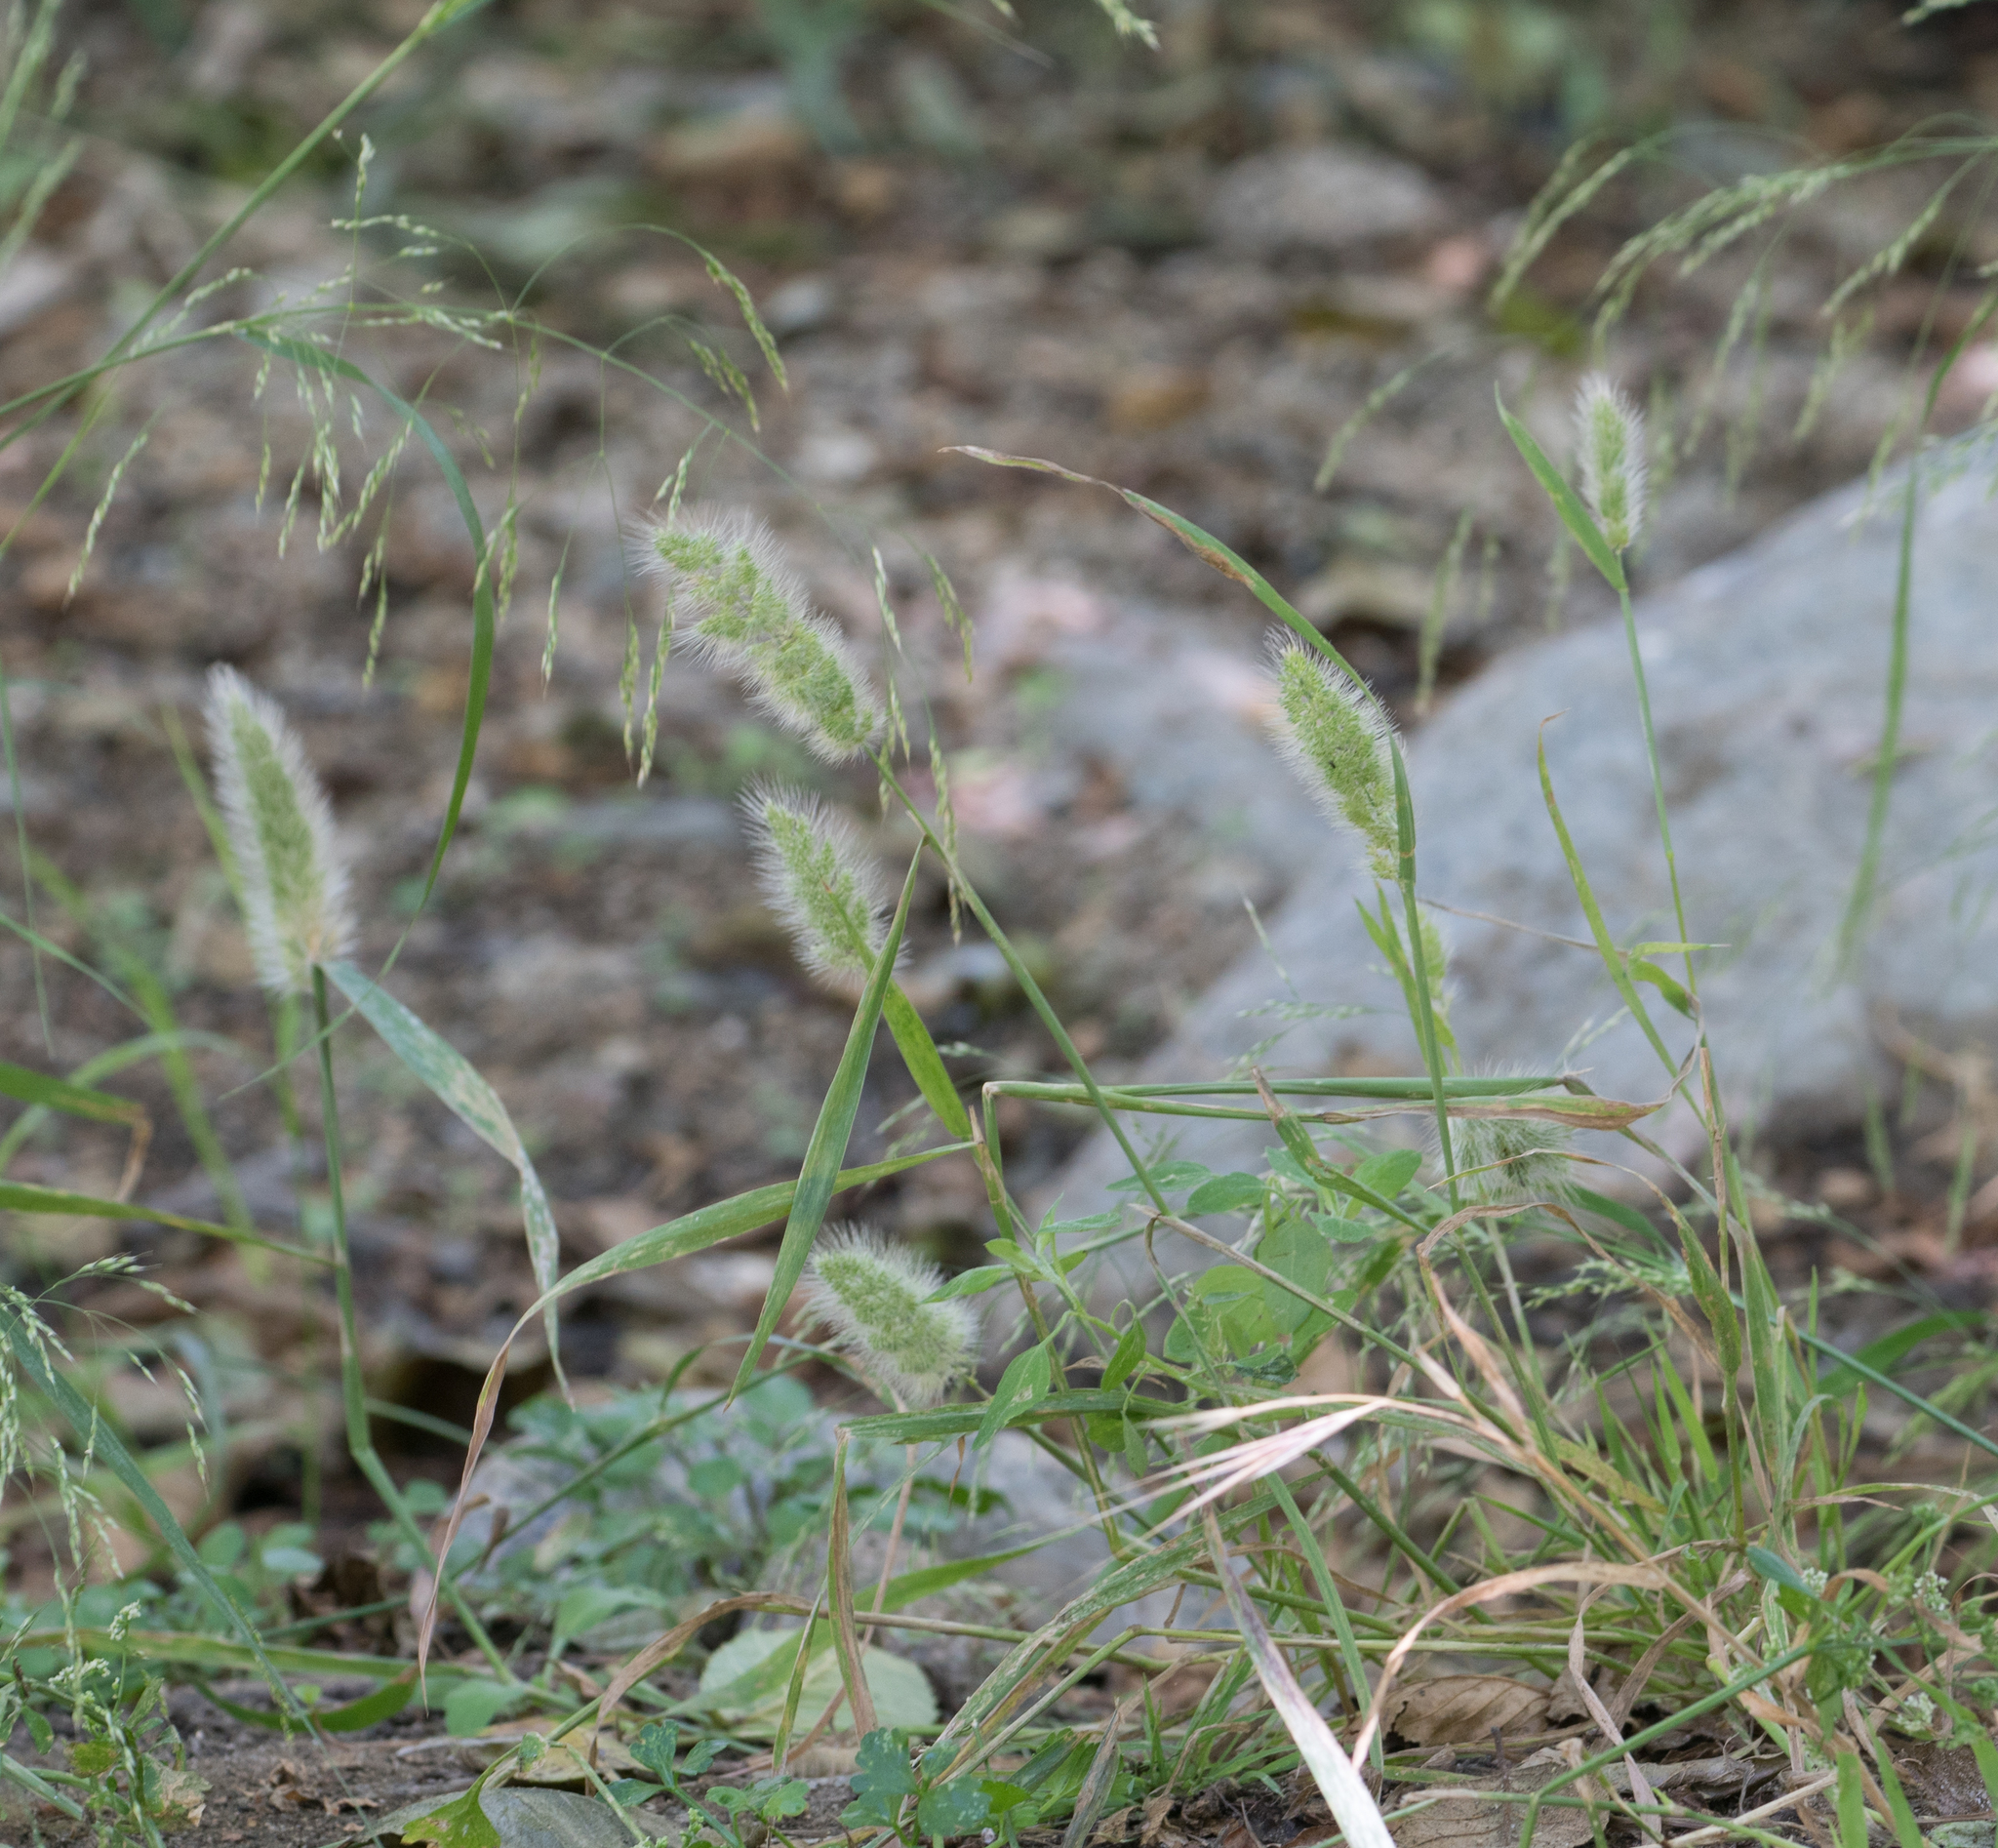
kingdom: Plantae
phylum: Tracheophyta
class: Liliopsida
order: Poales
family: Poaceae
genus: Polypogon
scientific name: Polypogon monspeliensis
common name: Annual rabbitsfoot grass
